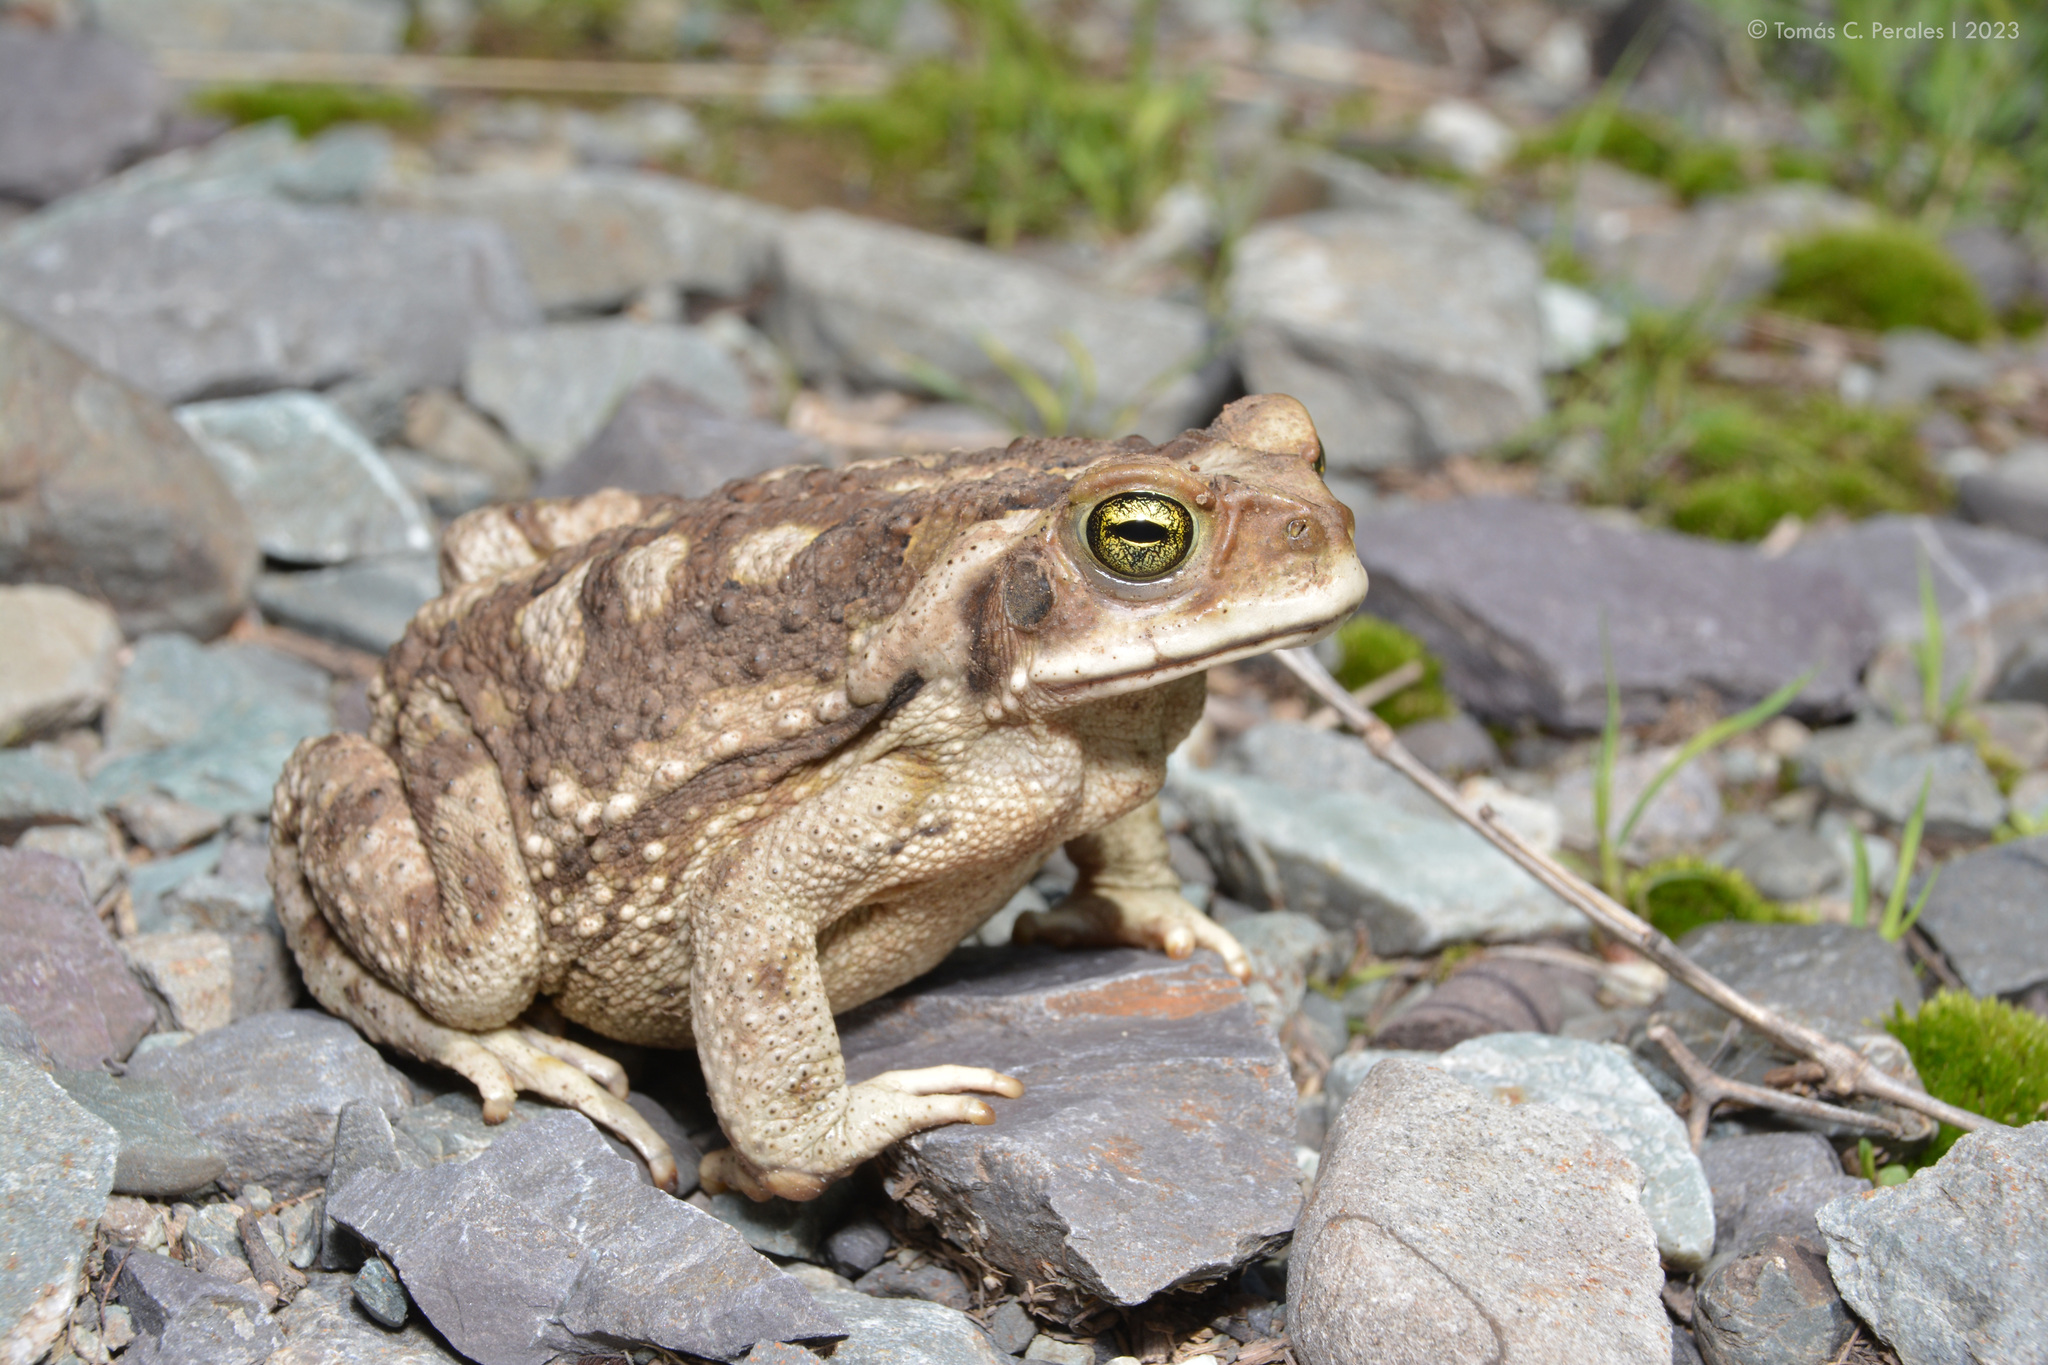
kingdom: Animalia
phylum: Chordata
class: Amphibia
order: Anura
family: Bufonidae
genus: Rhinella
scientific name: Rhinella arenarum
